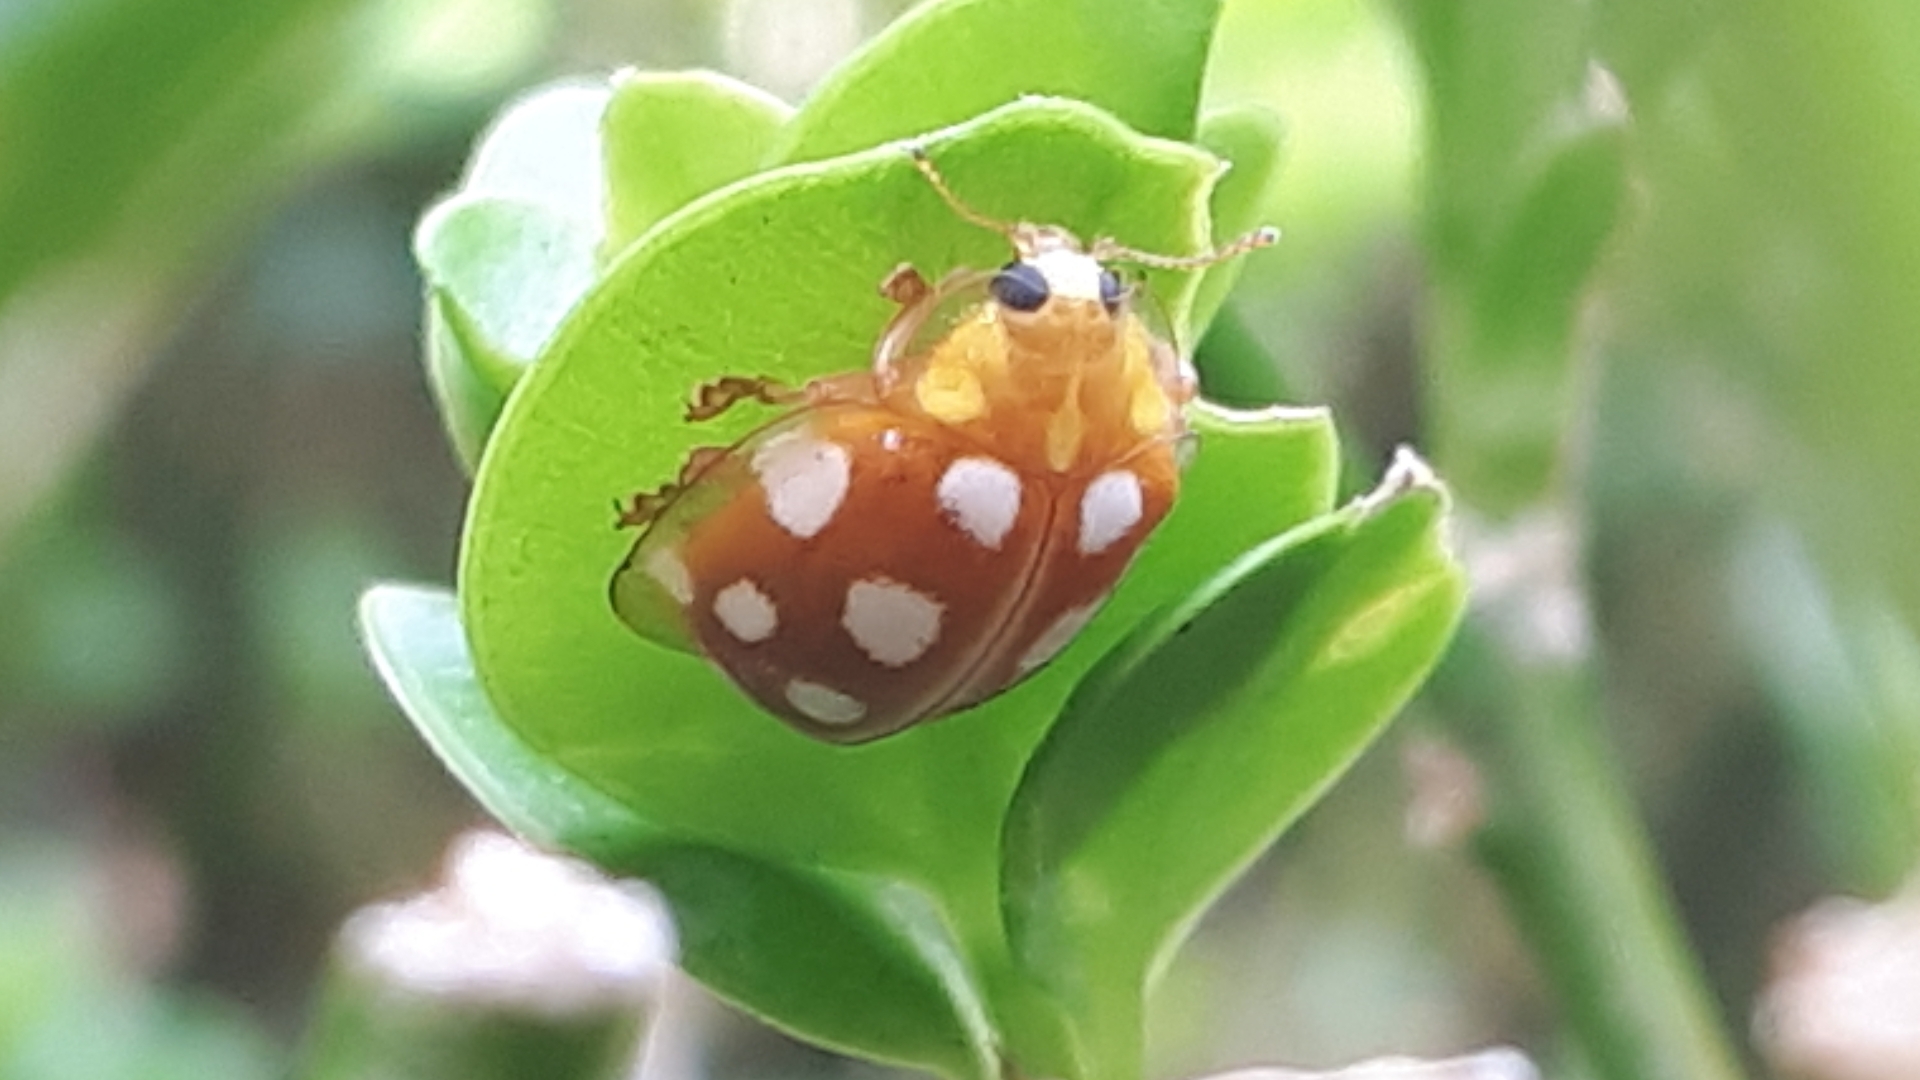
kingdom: Animalia
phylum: Arthropoda
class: Insecta
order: Coleoptera
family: Coccinellidae
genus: Halyzia
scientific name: Halyzia sedecimguttata
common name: Orange ladybird
